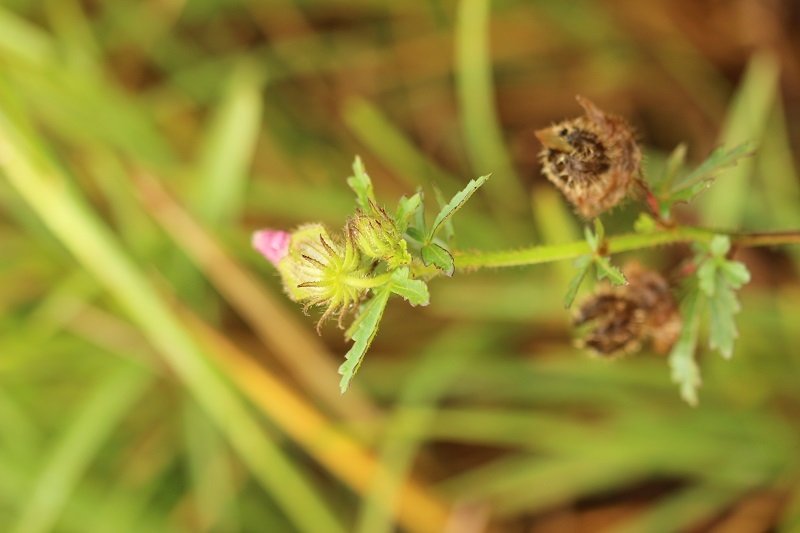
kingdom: Plantae
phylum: Tracheophyta
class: Magnoliopsida
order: Malvales
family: Malvaceae
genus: Hibiscus
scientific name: Hibiscus trionum
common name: Bladder ketmia
